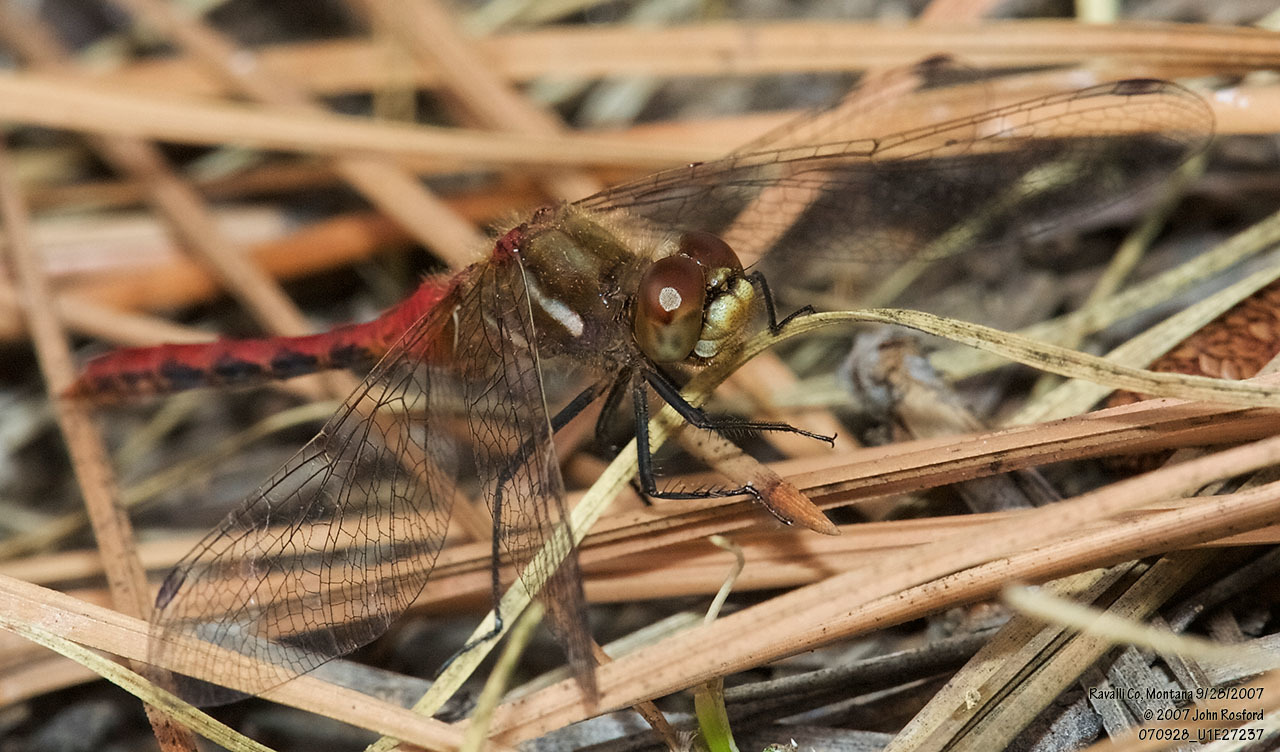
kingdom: Animalia
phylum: Arthropoda
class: Insecta
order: Odonata
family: Libellulidae
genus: Sympetrum
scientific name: Sympetrum pallipes
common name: Striped meadowhawk
